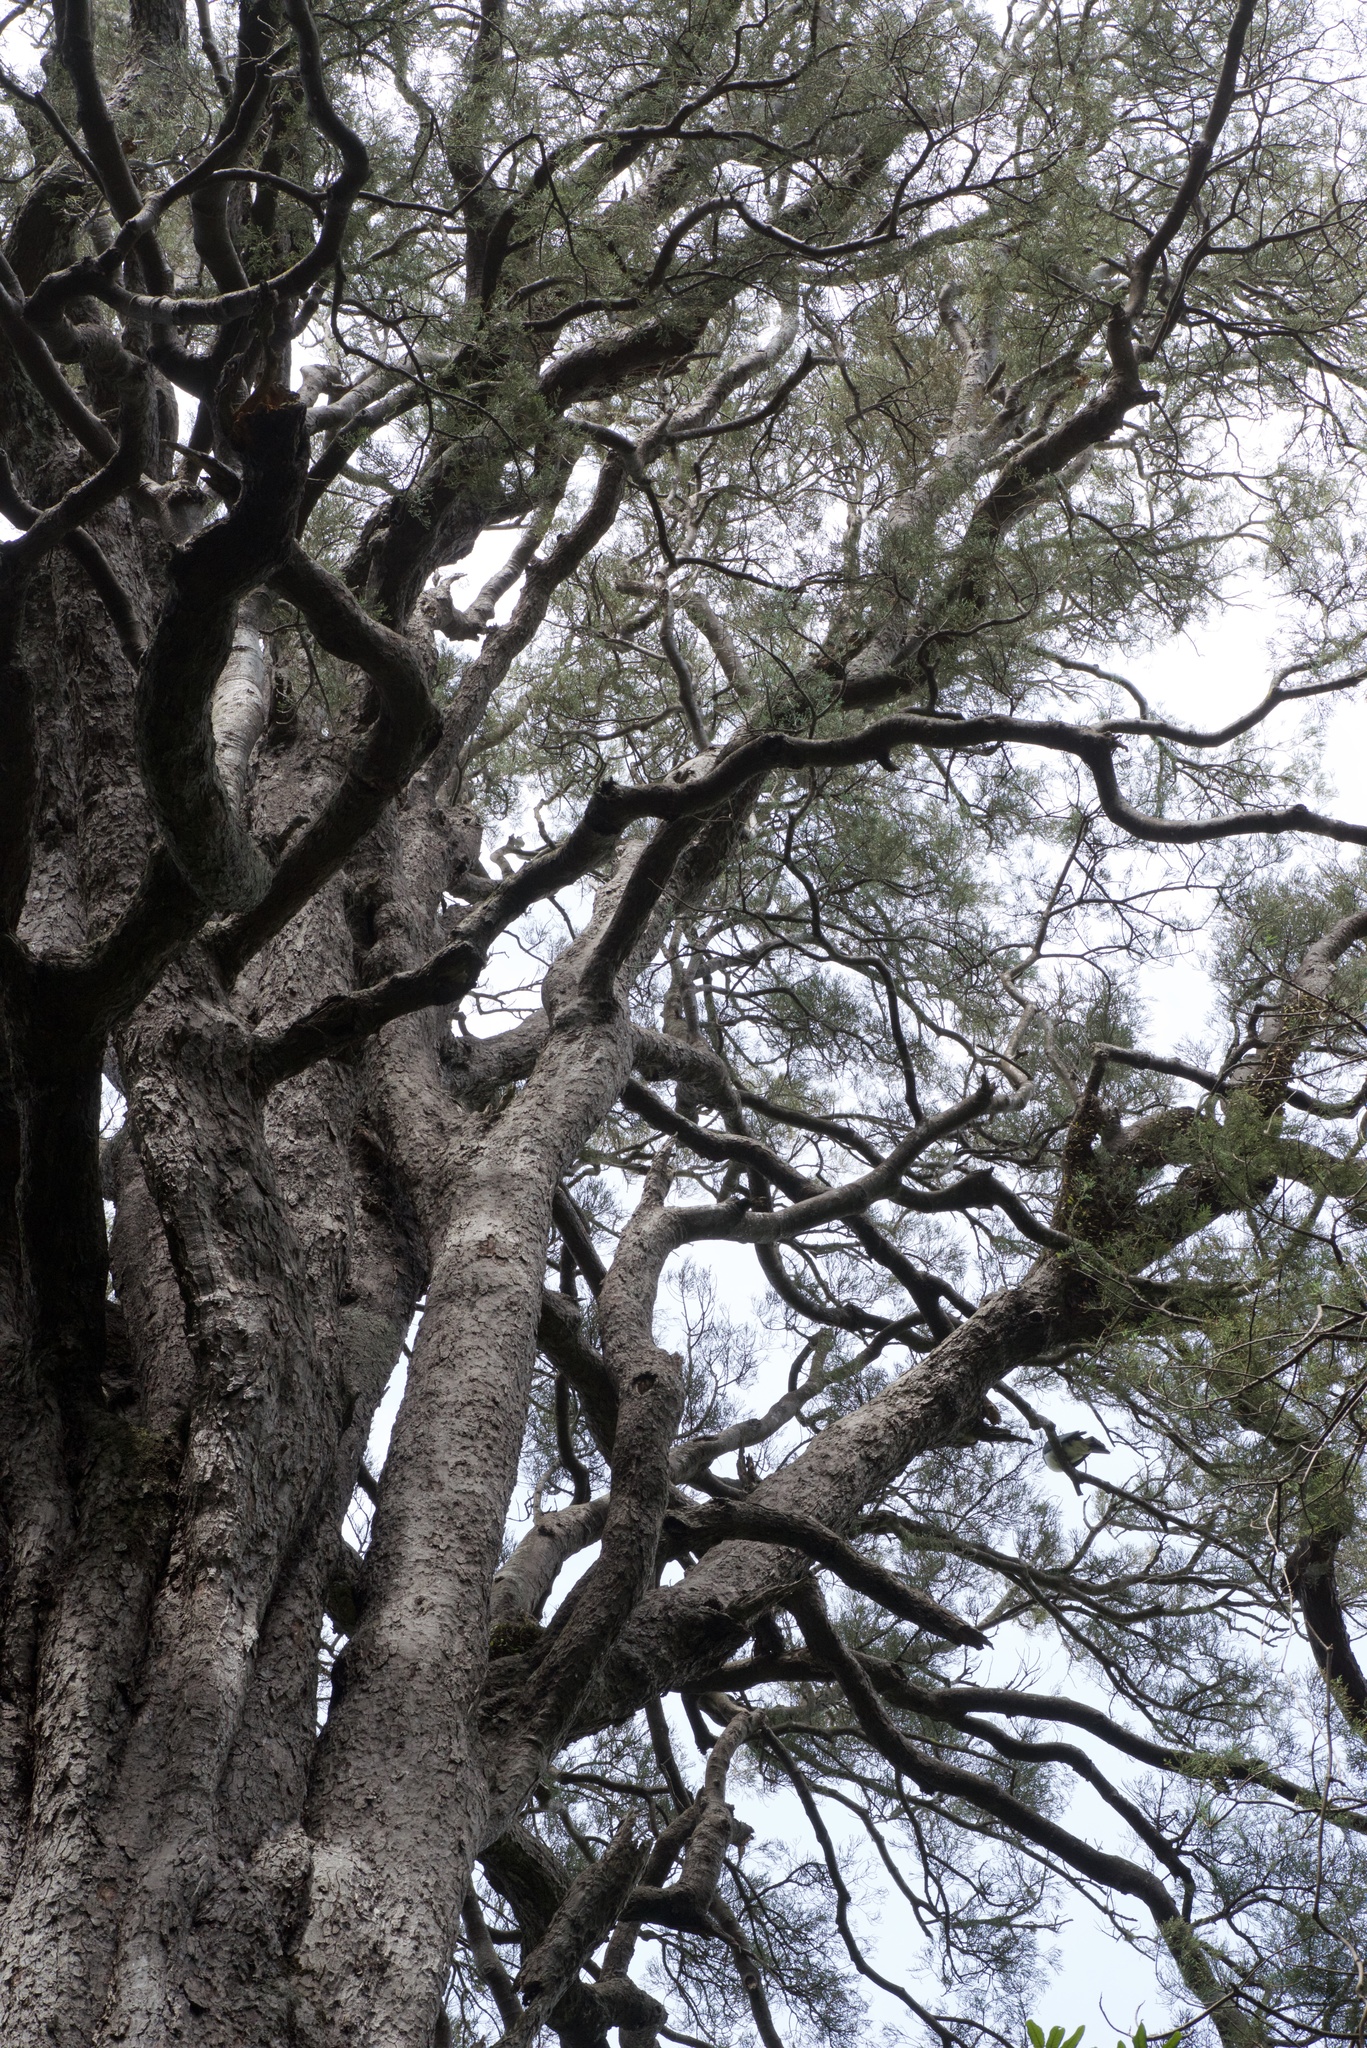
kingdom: Plantae
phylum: Tracheophyta
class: Pinopsida
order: Pinales
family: Podocarpaceae
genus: Dacrycarpus
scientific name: Dacrycarpus dacrydioides
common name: White pine
